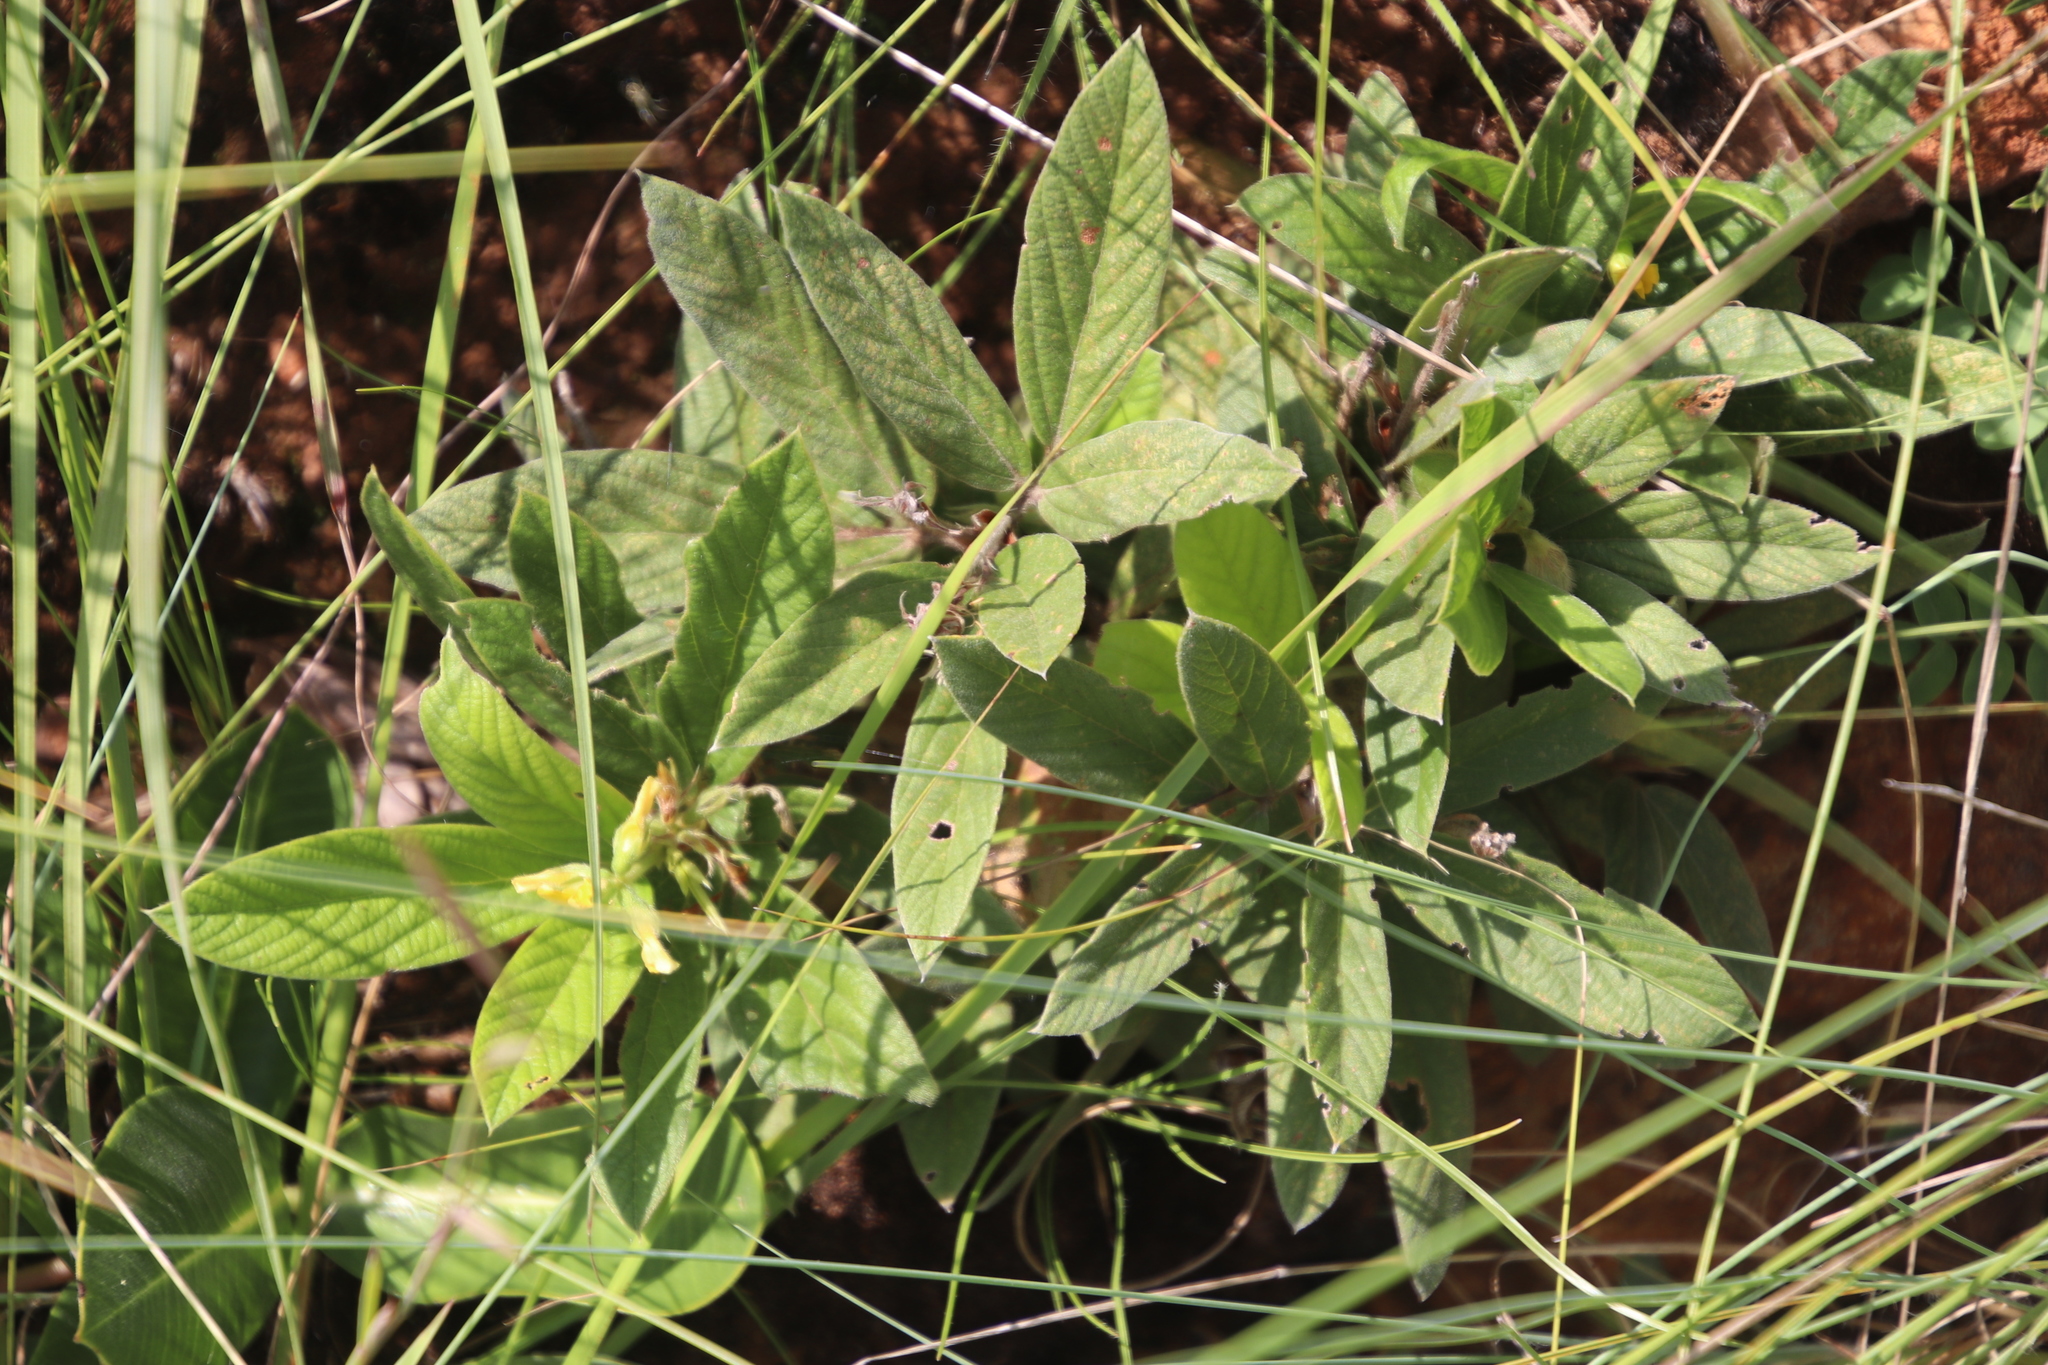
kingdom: Plantae
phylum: Tracheophyta
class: Magnoliopsida
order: Fabales
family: Fabaceae
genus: Eriosema
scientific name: Eriosema ellipticifolium
